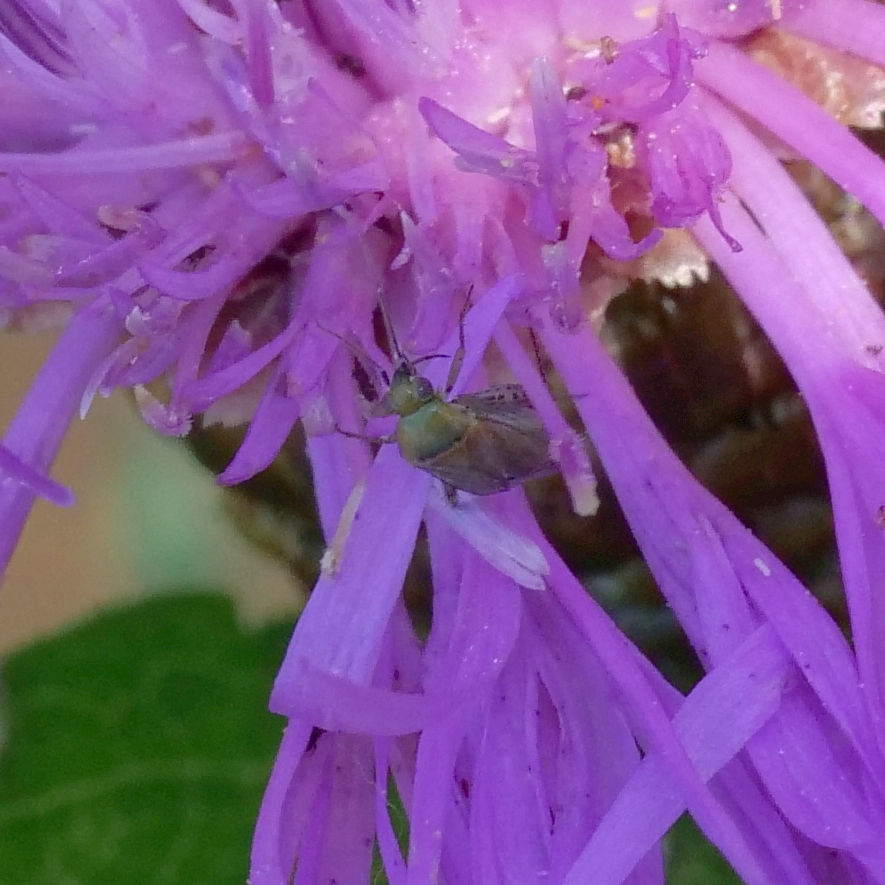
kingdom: Animalia
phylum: Arthropoda
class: Insecta
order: Hemiptera
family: Miridae
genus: Plagiognathus
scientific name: Plagiognathus chrysanthemi
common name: Plant bug
